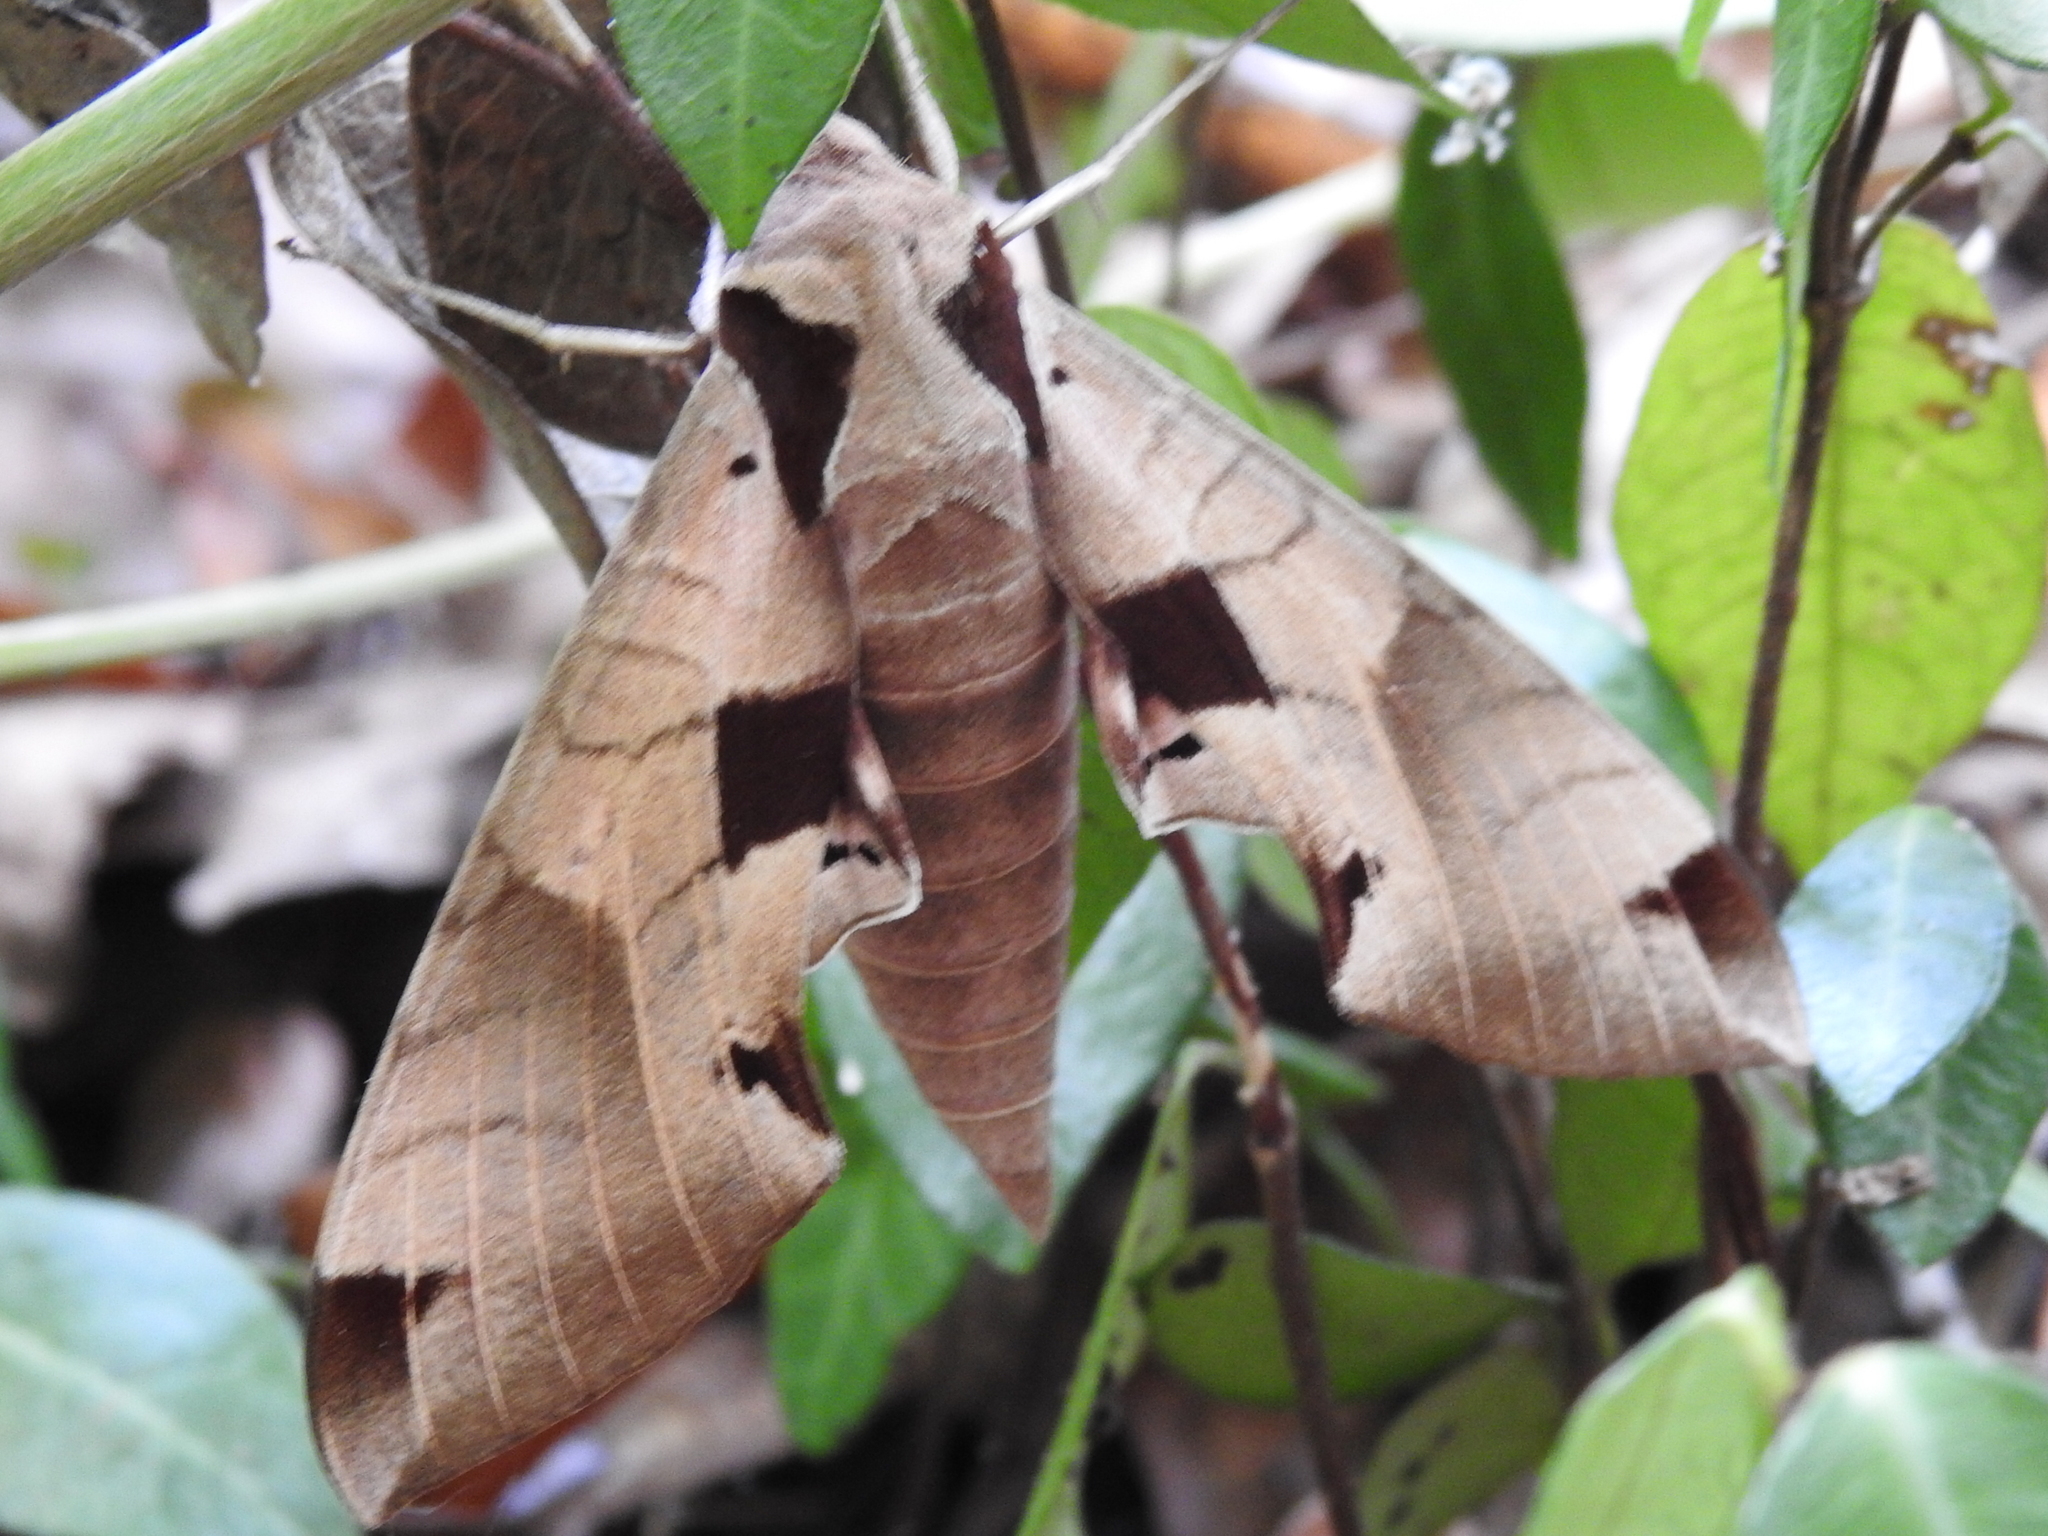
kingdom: Animalia
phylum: Arthropoda
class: Insecta
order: Lepidoptera
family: Sphingidae
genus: Eumorpha
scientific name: Eumorpha achemon
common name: Achemon sphinx
